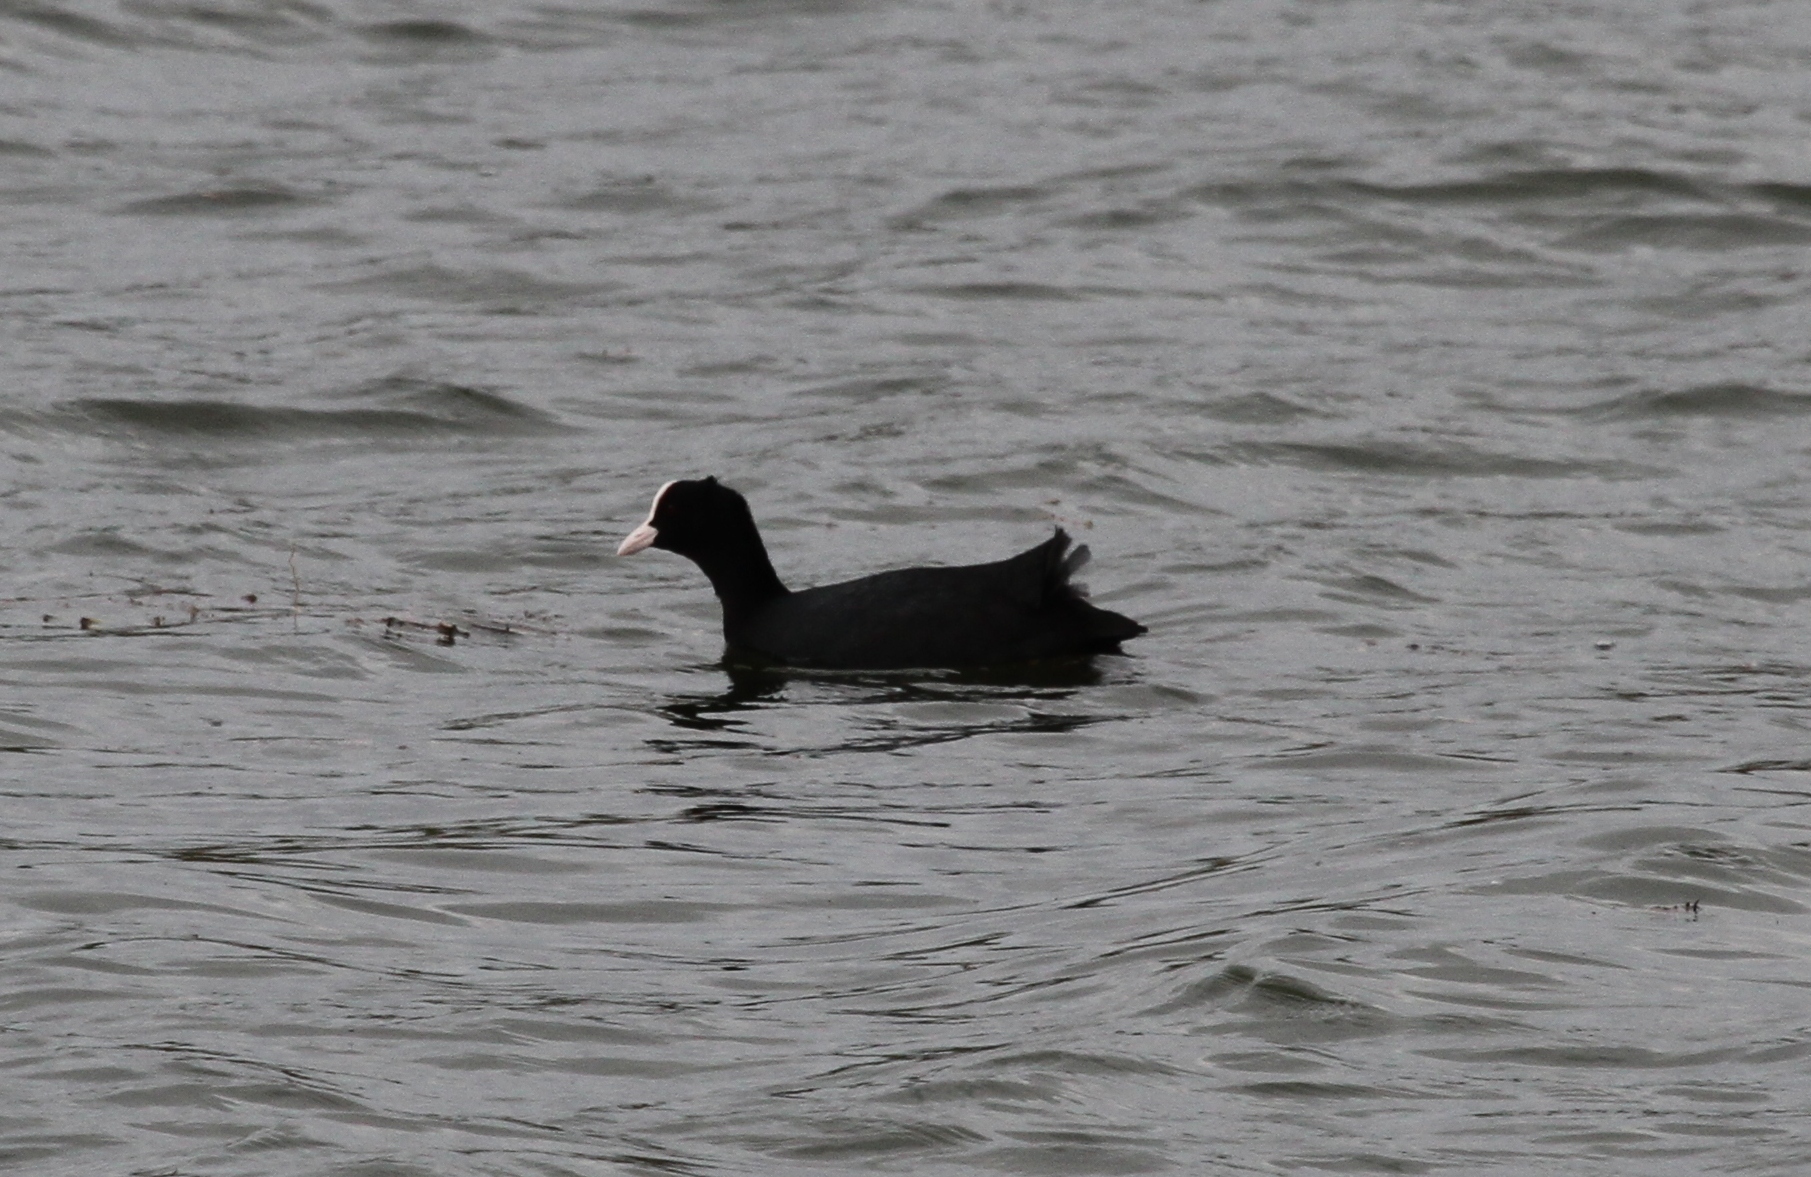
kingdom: Animalia
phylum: Chordata
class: Aves
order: Gruiformes
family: Rallidae
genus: Fulica
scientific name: Fulica atra
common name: Eurasian coot
